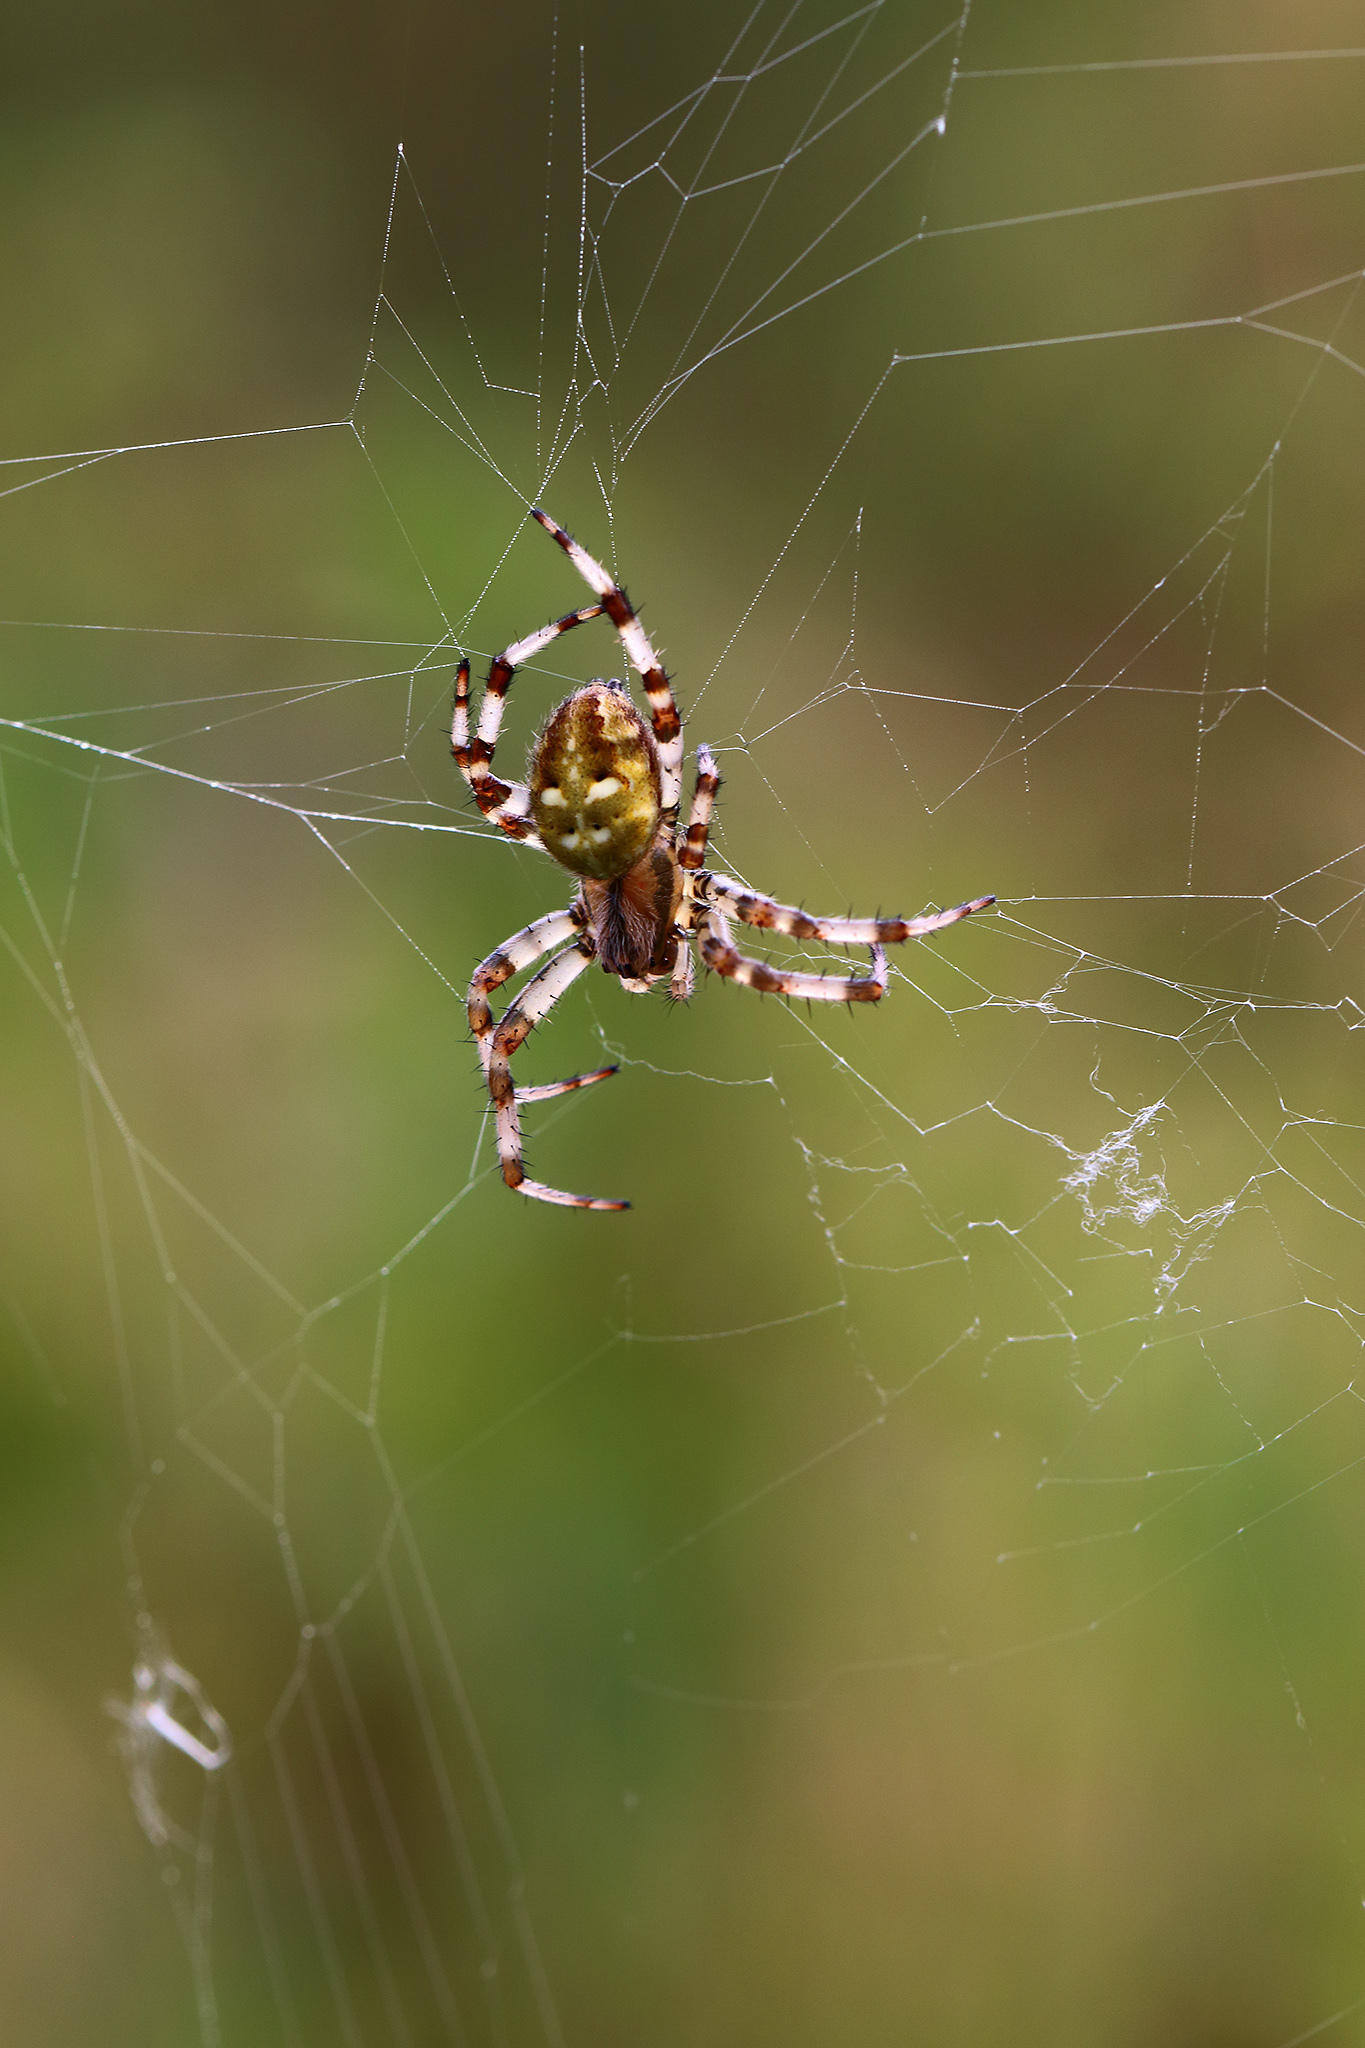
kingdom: Animalia
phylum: Arthropoda
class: Arachnida
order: Araneae
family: Araneidae
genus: Araneus
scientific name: Araneus quadratus
